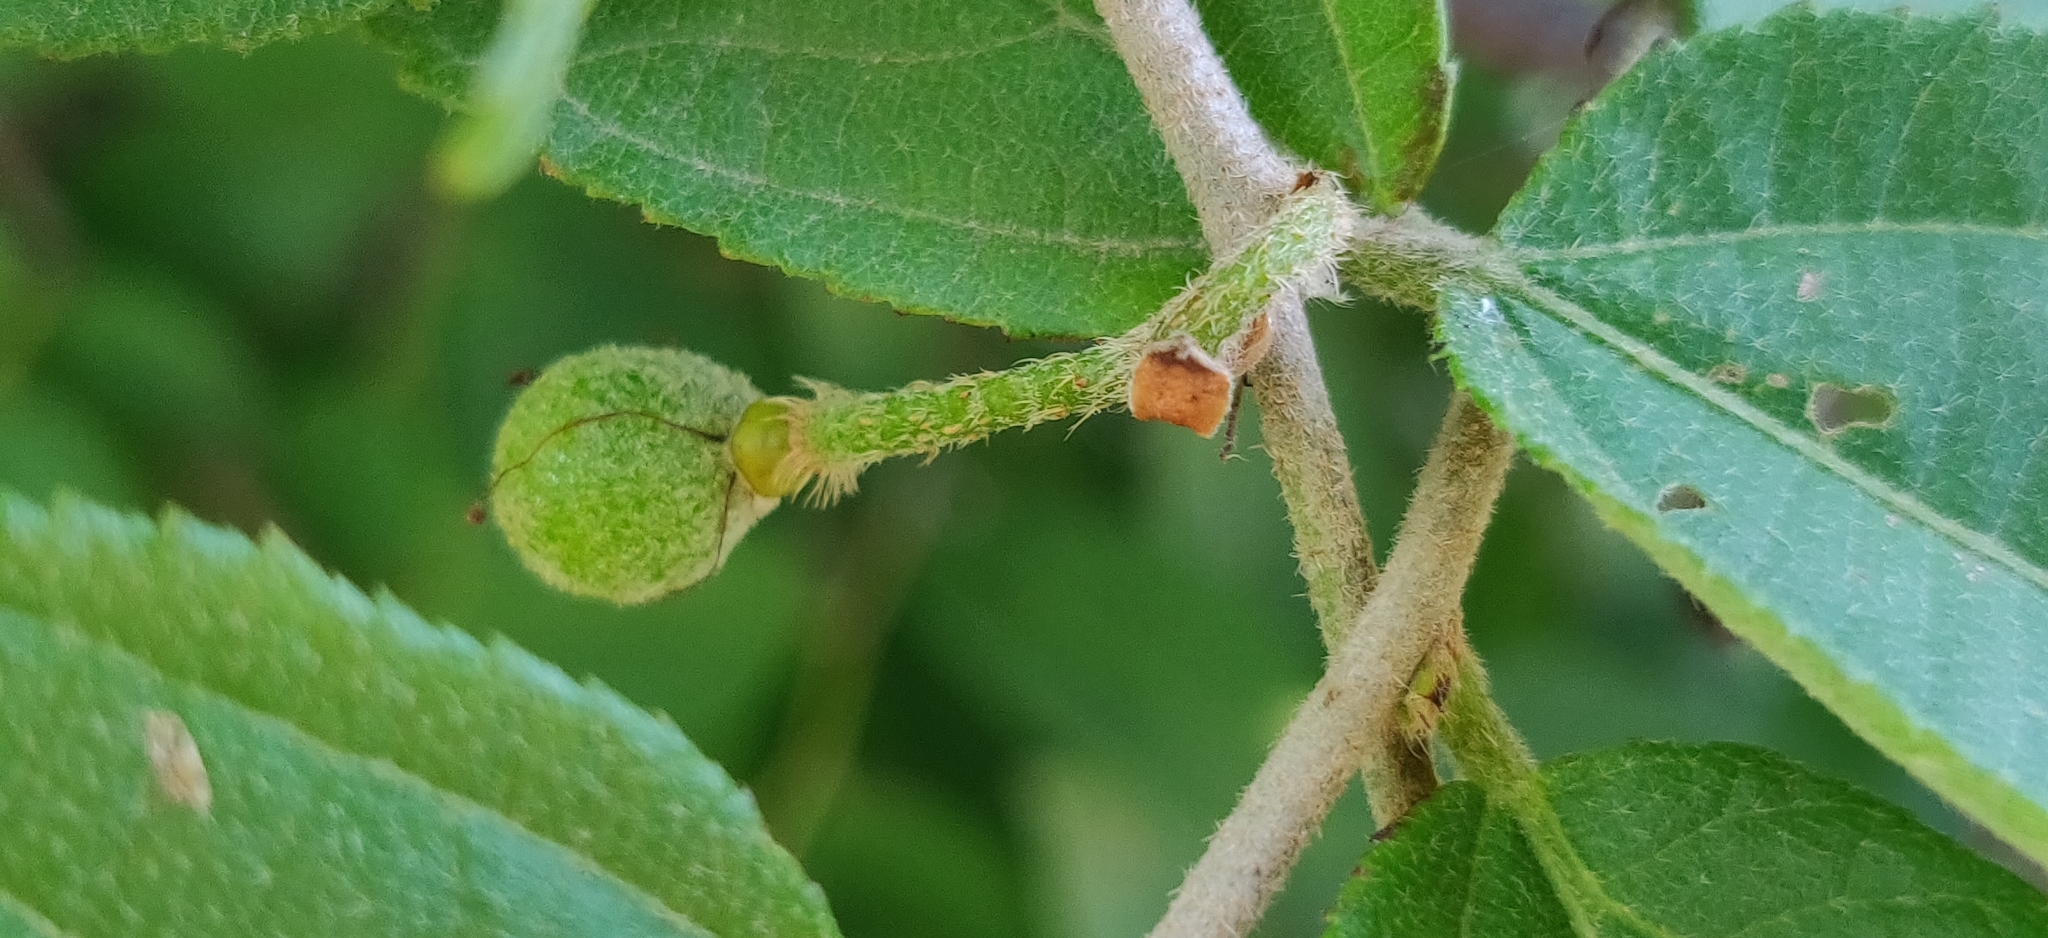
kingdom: Plantae
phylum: Tracheophyta
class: Magnoliopsida
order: Malvales
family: Malvaceae
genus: Grewia
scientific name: Grewia flavescens
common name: Sandpaper raisin
